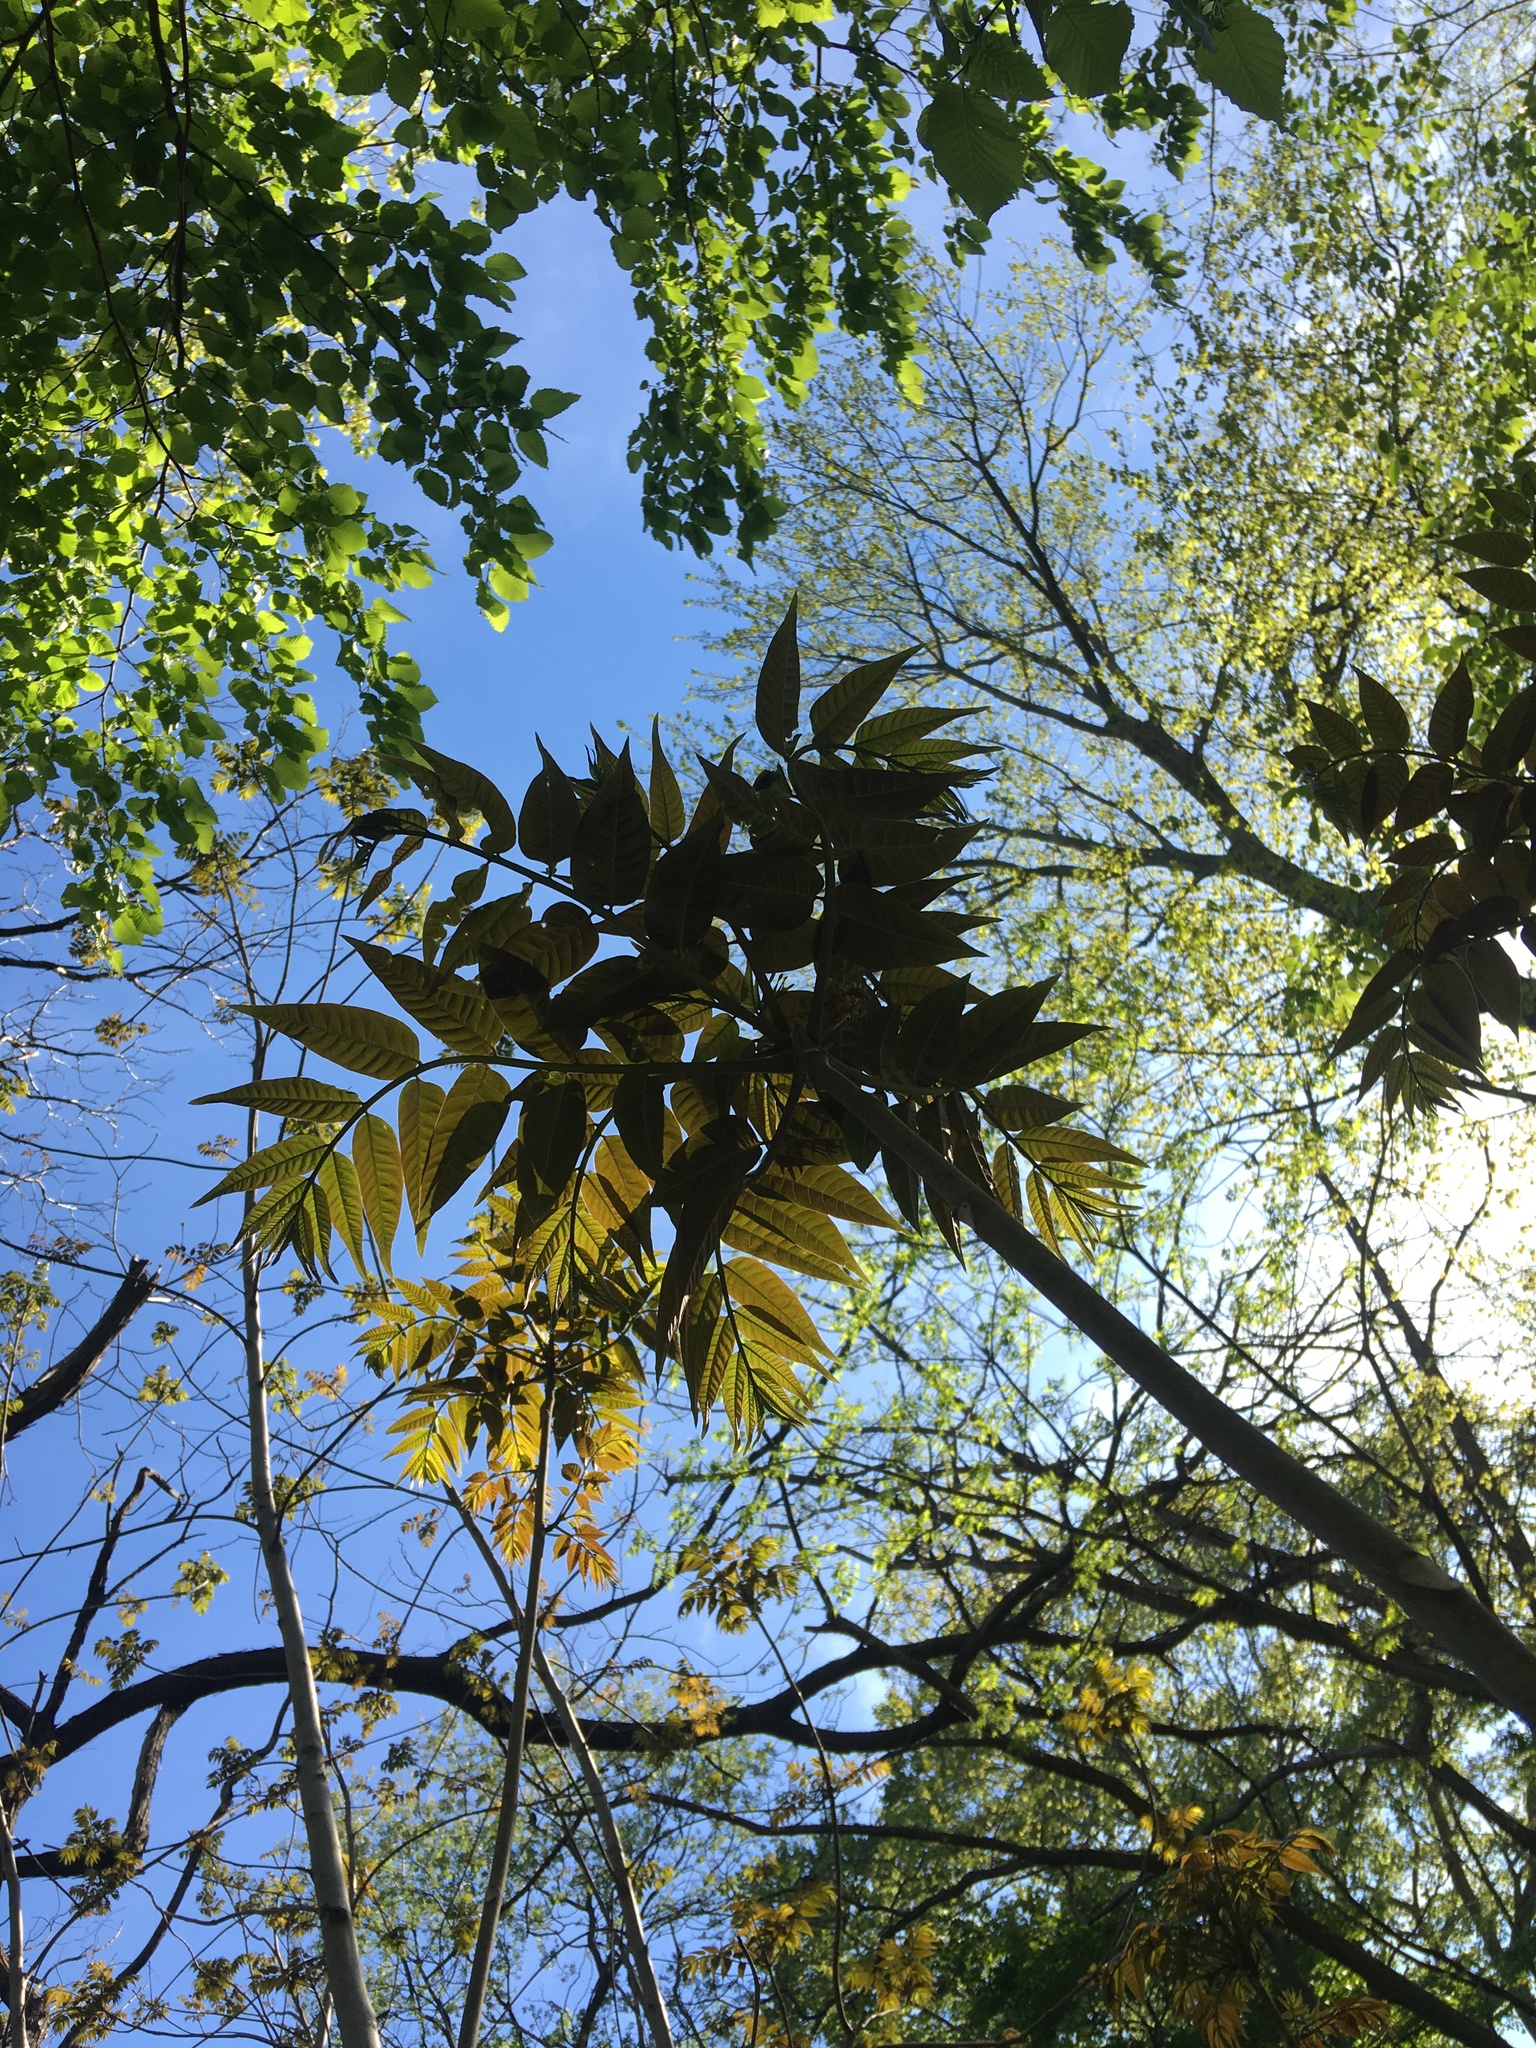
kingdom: Plantae
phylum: Tracheophyta
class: Magnoliopsida
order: Sapindales
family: Meliaceae
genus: Toona
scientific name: Toona sinensis
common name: Red toon
